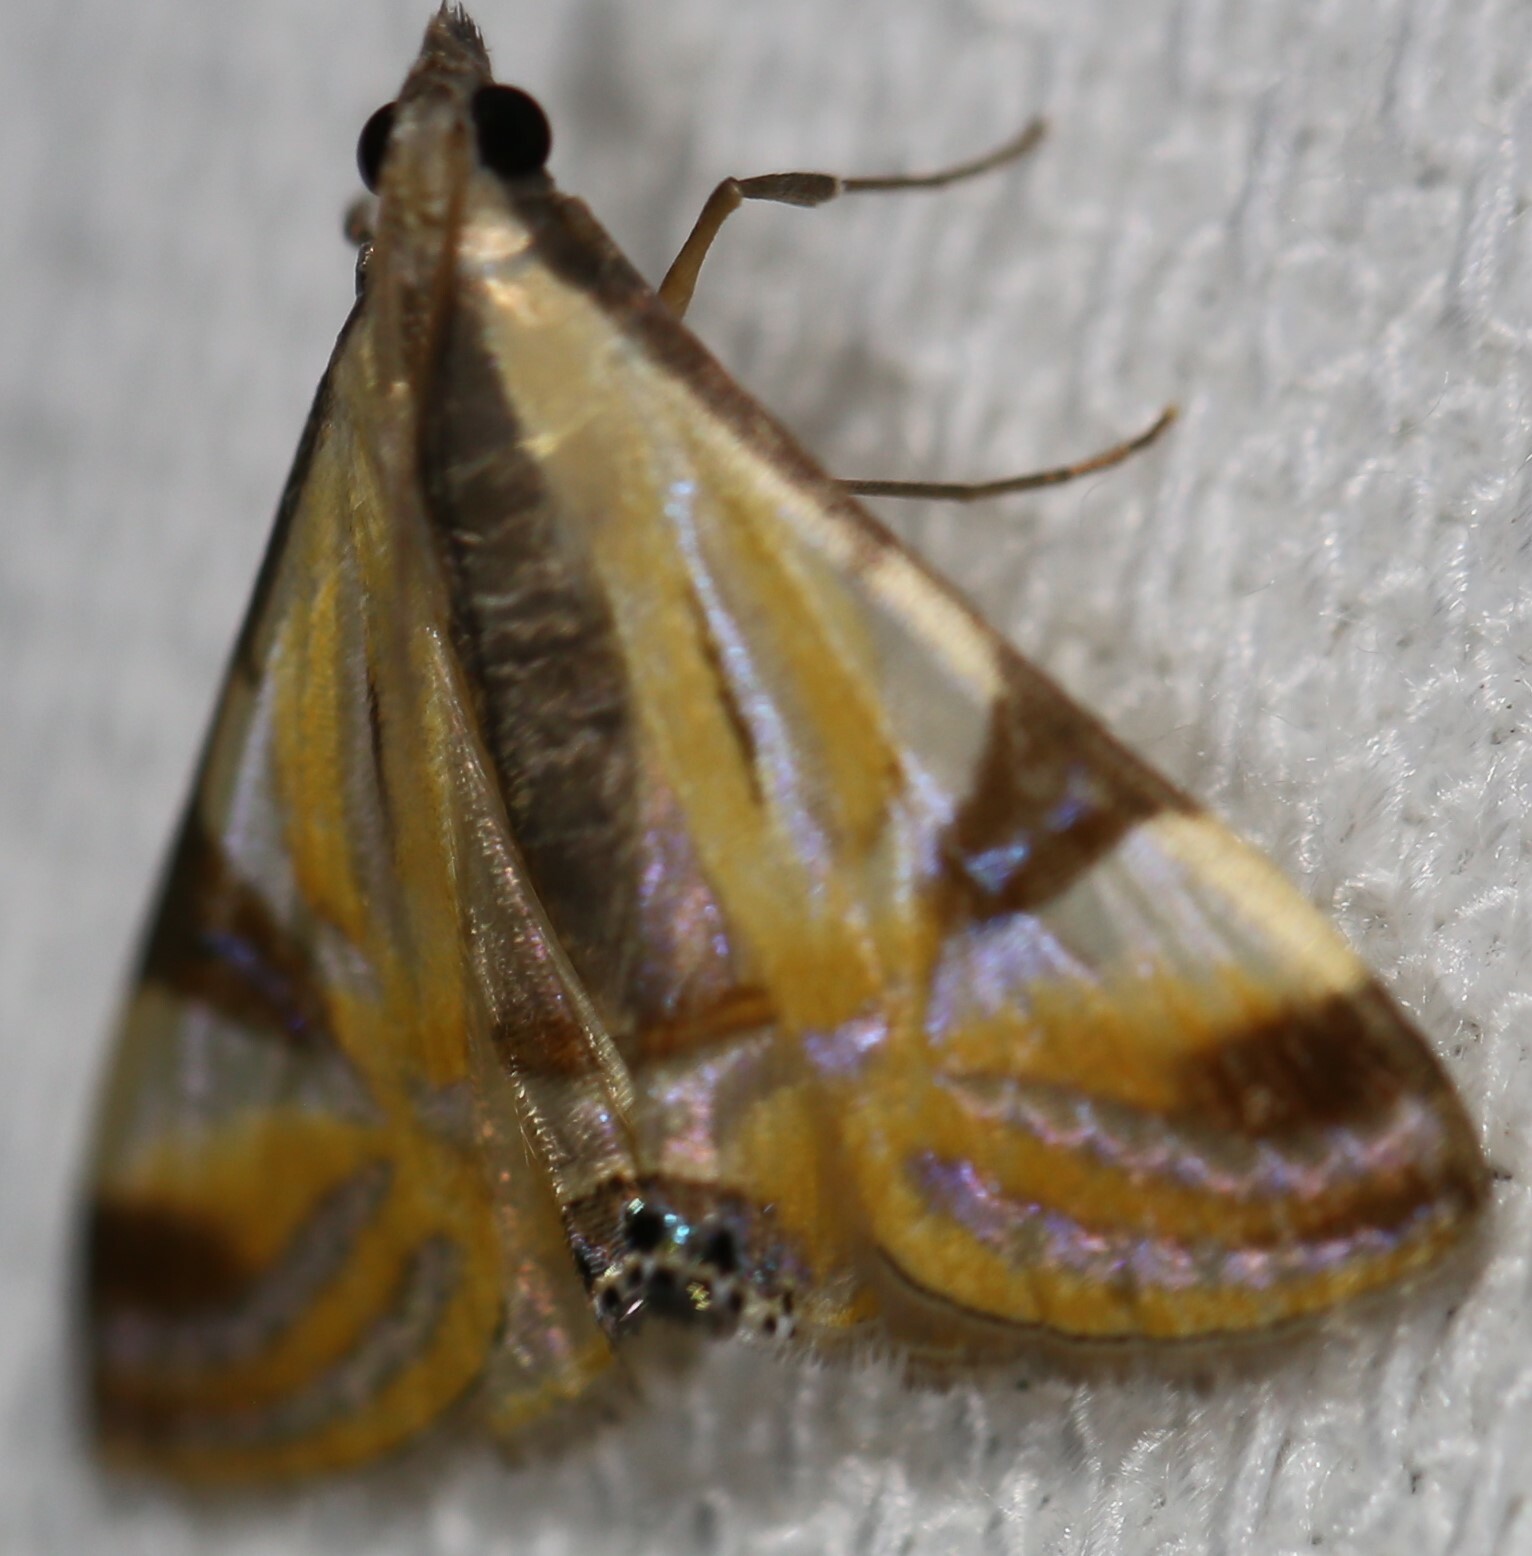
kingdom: Animalia
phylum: Arthropoda
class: Insecta
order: Lepidoptera
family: Crambidae
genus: Talanga
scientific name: Talanga tolumnialis
